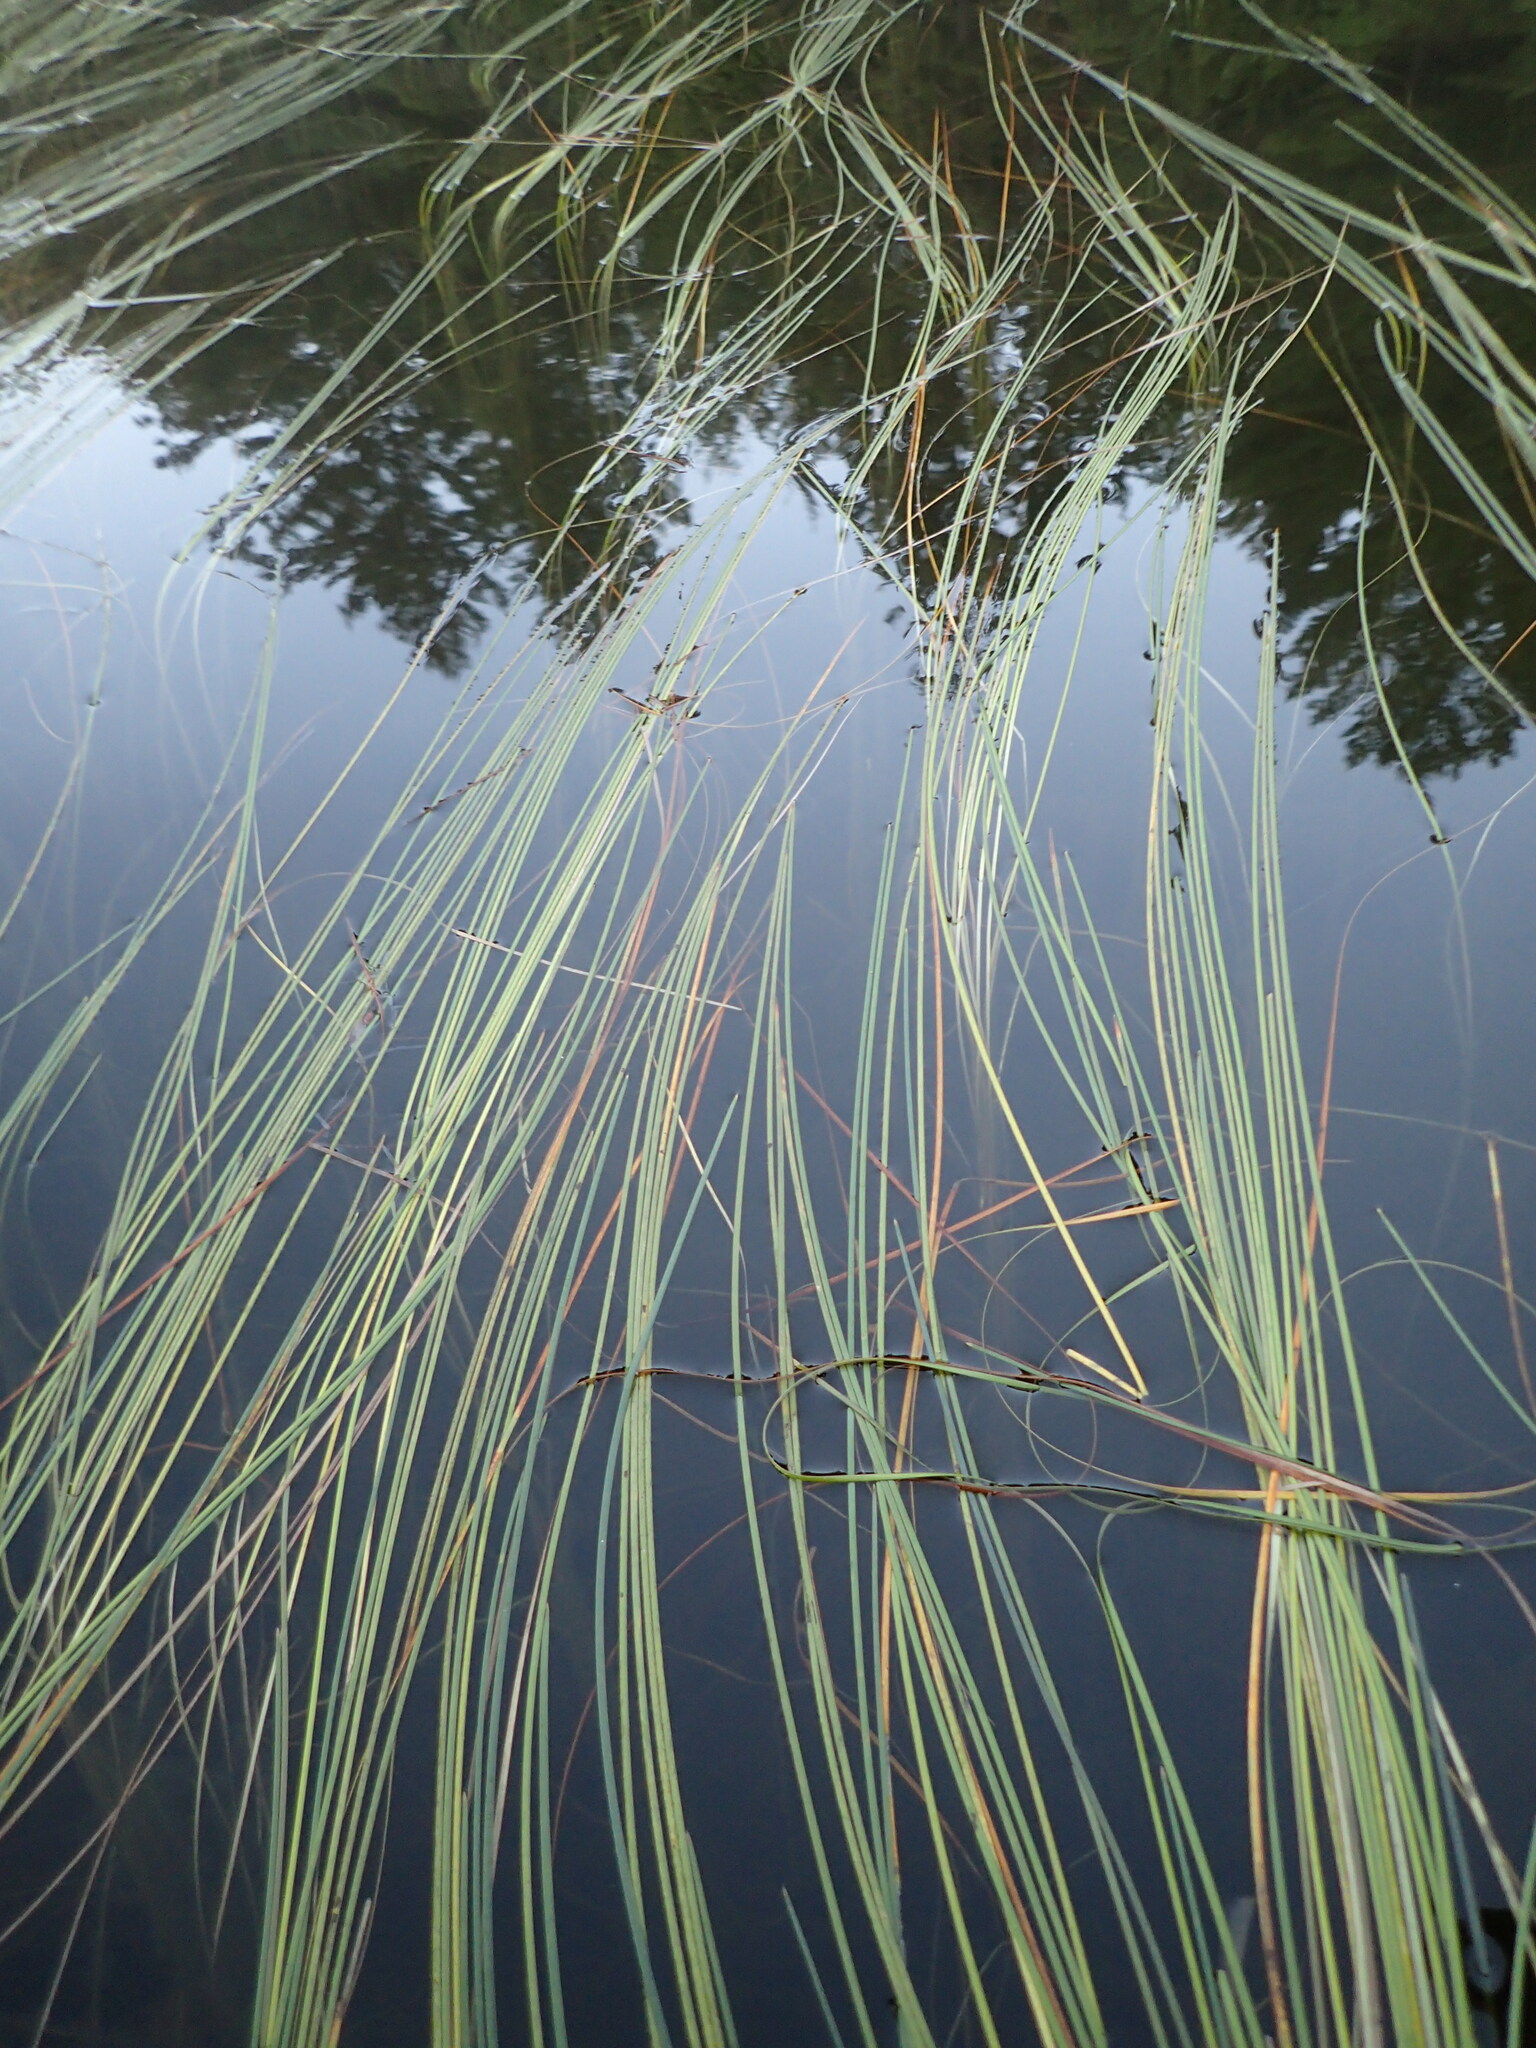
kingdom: Plantae
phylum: Tracheophyta
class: Liliopsida
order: Poales
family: Typhaceae
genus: Sparganium
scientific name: Sparganium angustifolium
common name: Floating bur-reed
